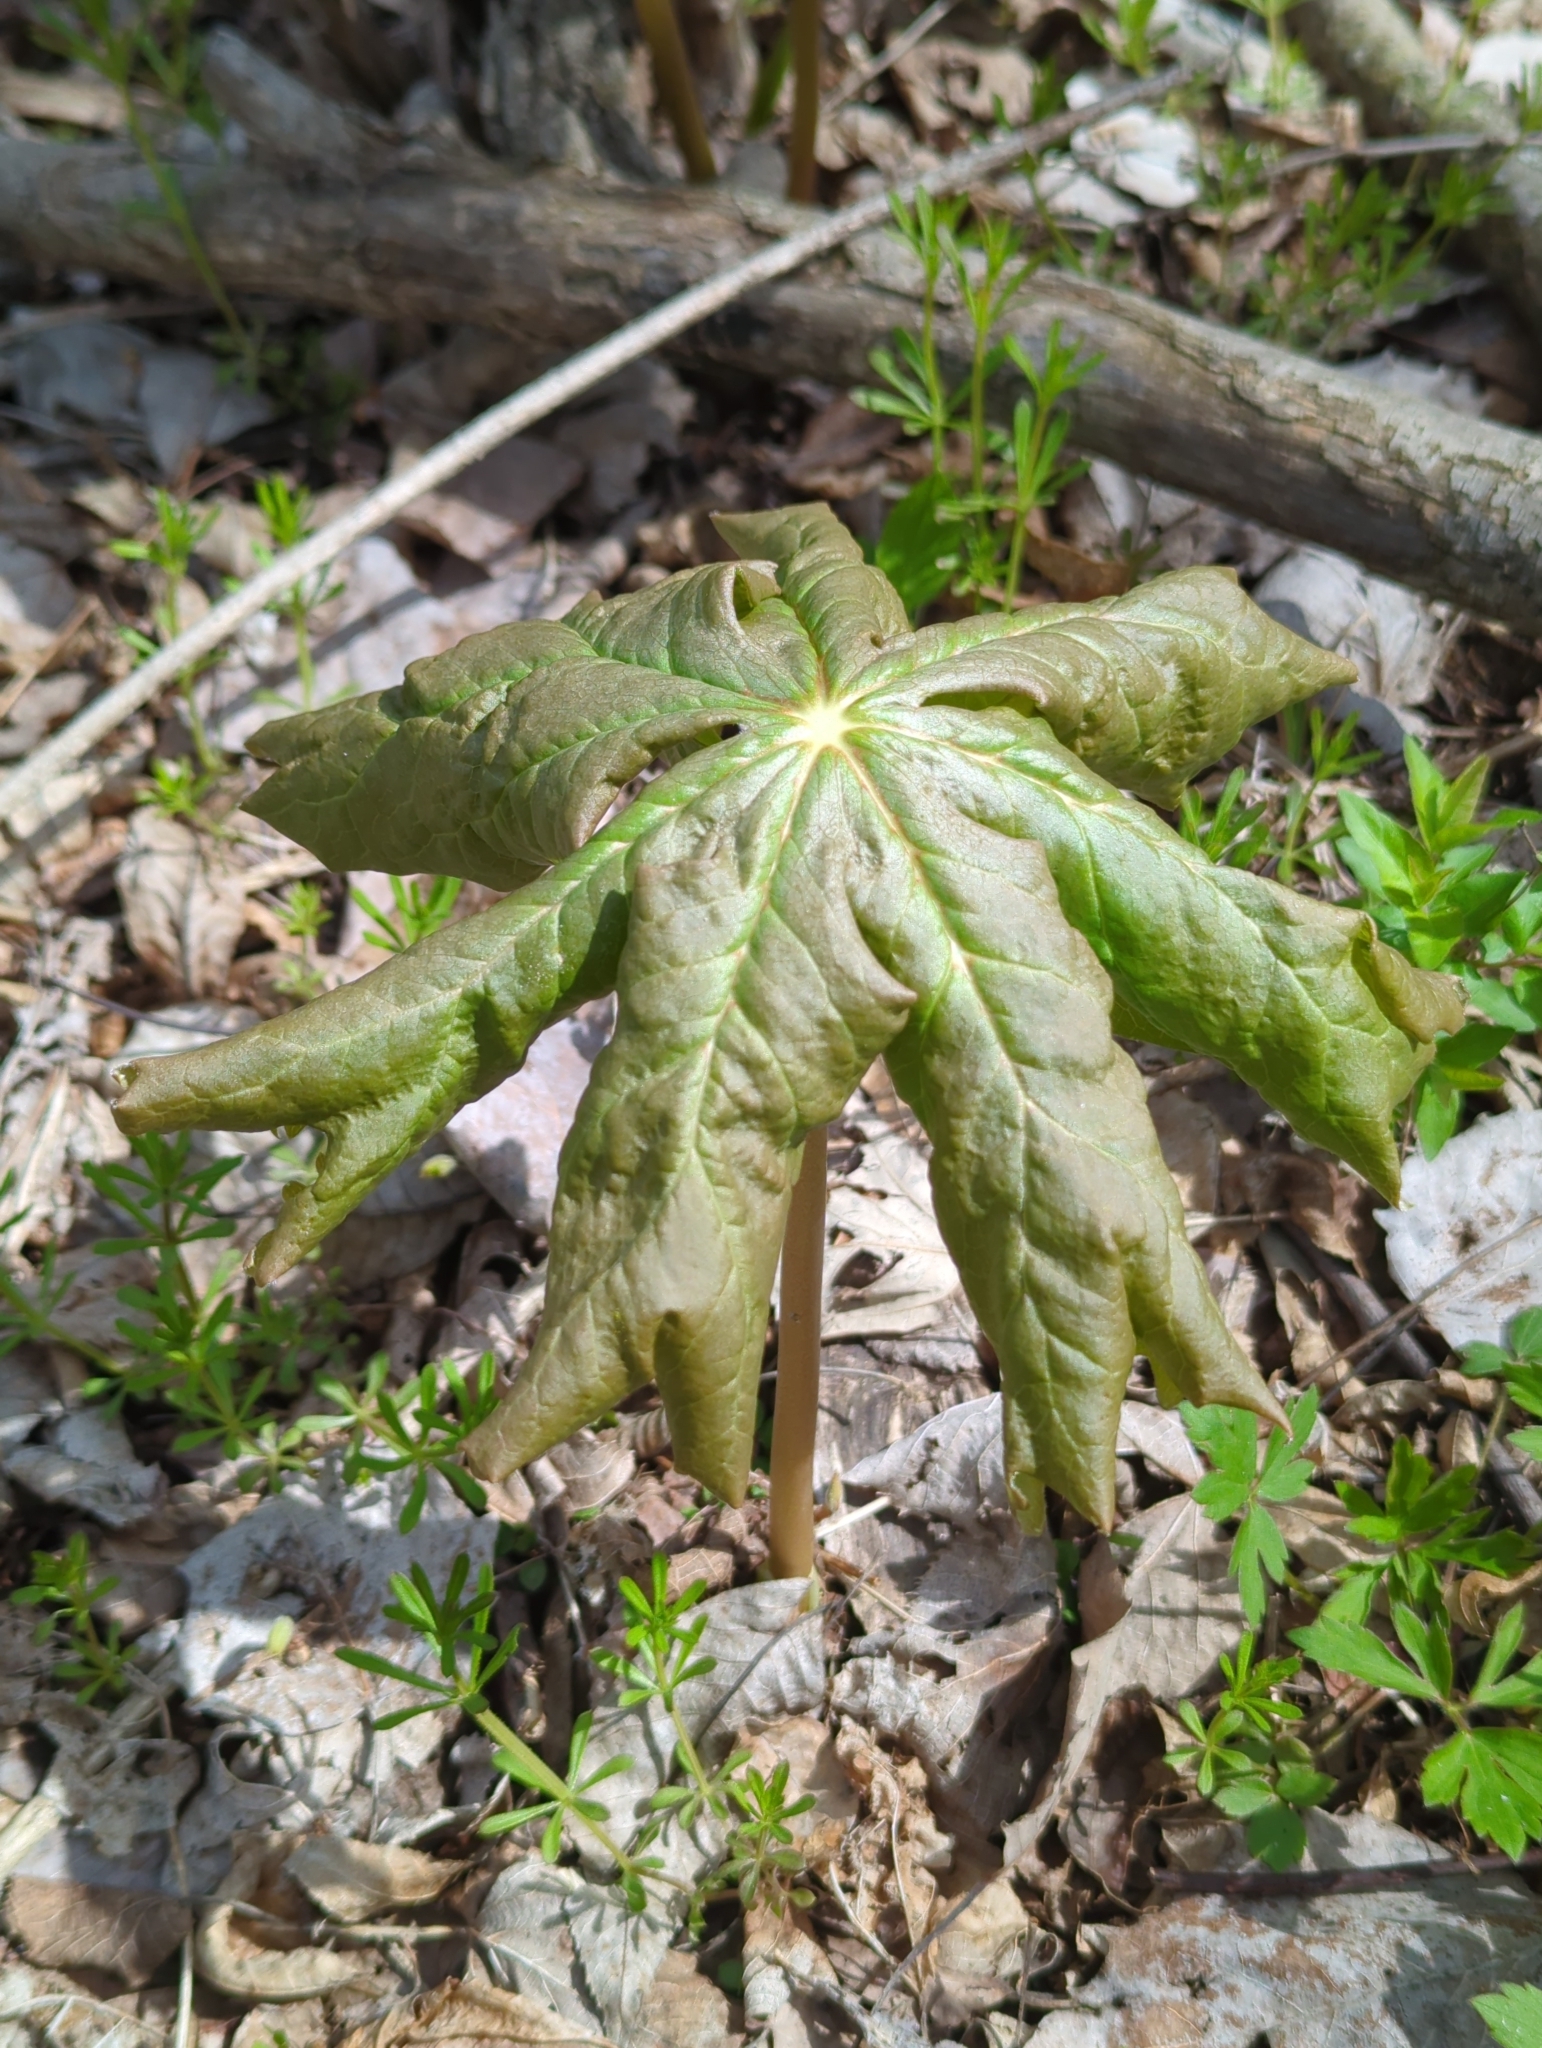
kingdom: Plantae
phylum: Tracheophyta
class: Magnoliopsida
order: Ranunculales
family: Berberidaceae
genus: Podophyllum
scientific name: Podophyllum peltatum
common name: Wild mandrake
